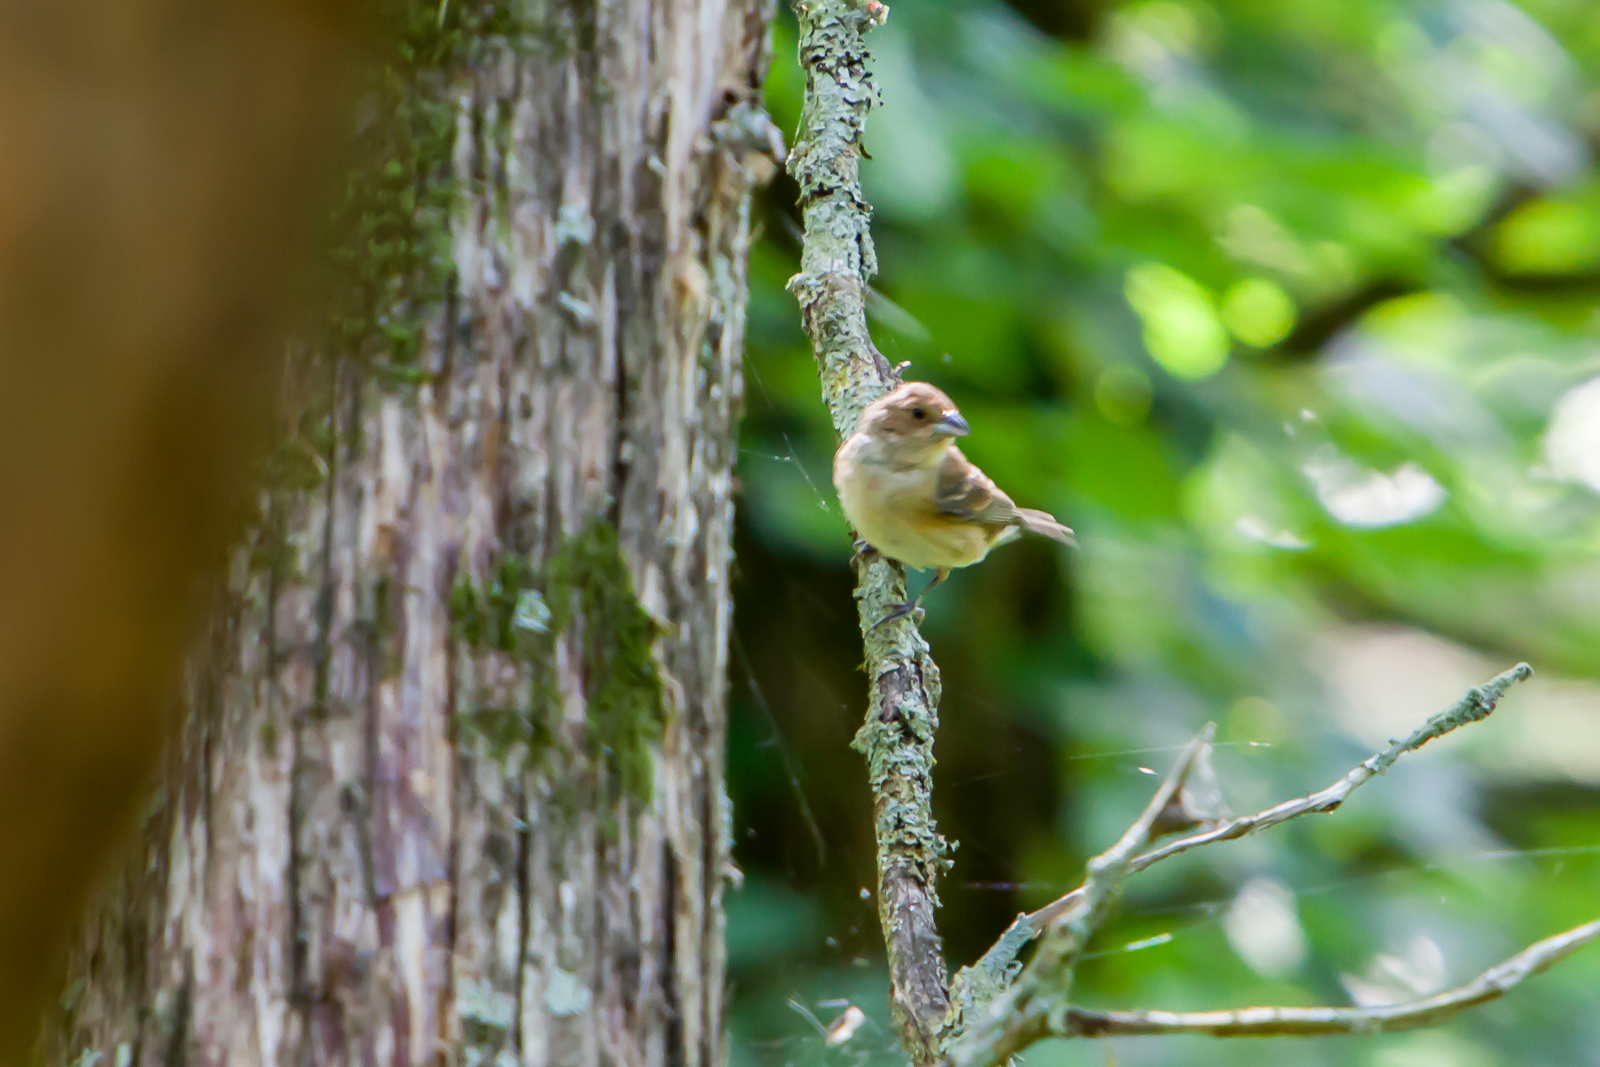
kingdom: Animalia
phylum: Chordata
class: Aves
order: Passeriformes
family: Cardinalidae
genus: Passerina
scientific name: Passerina cyanea
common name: Indigo bunting
